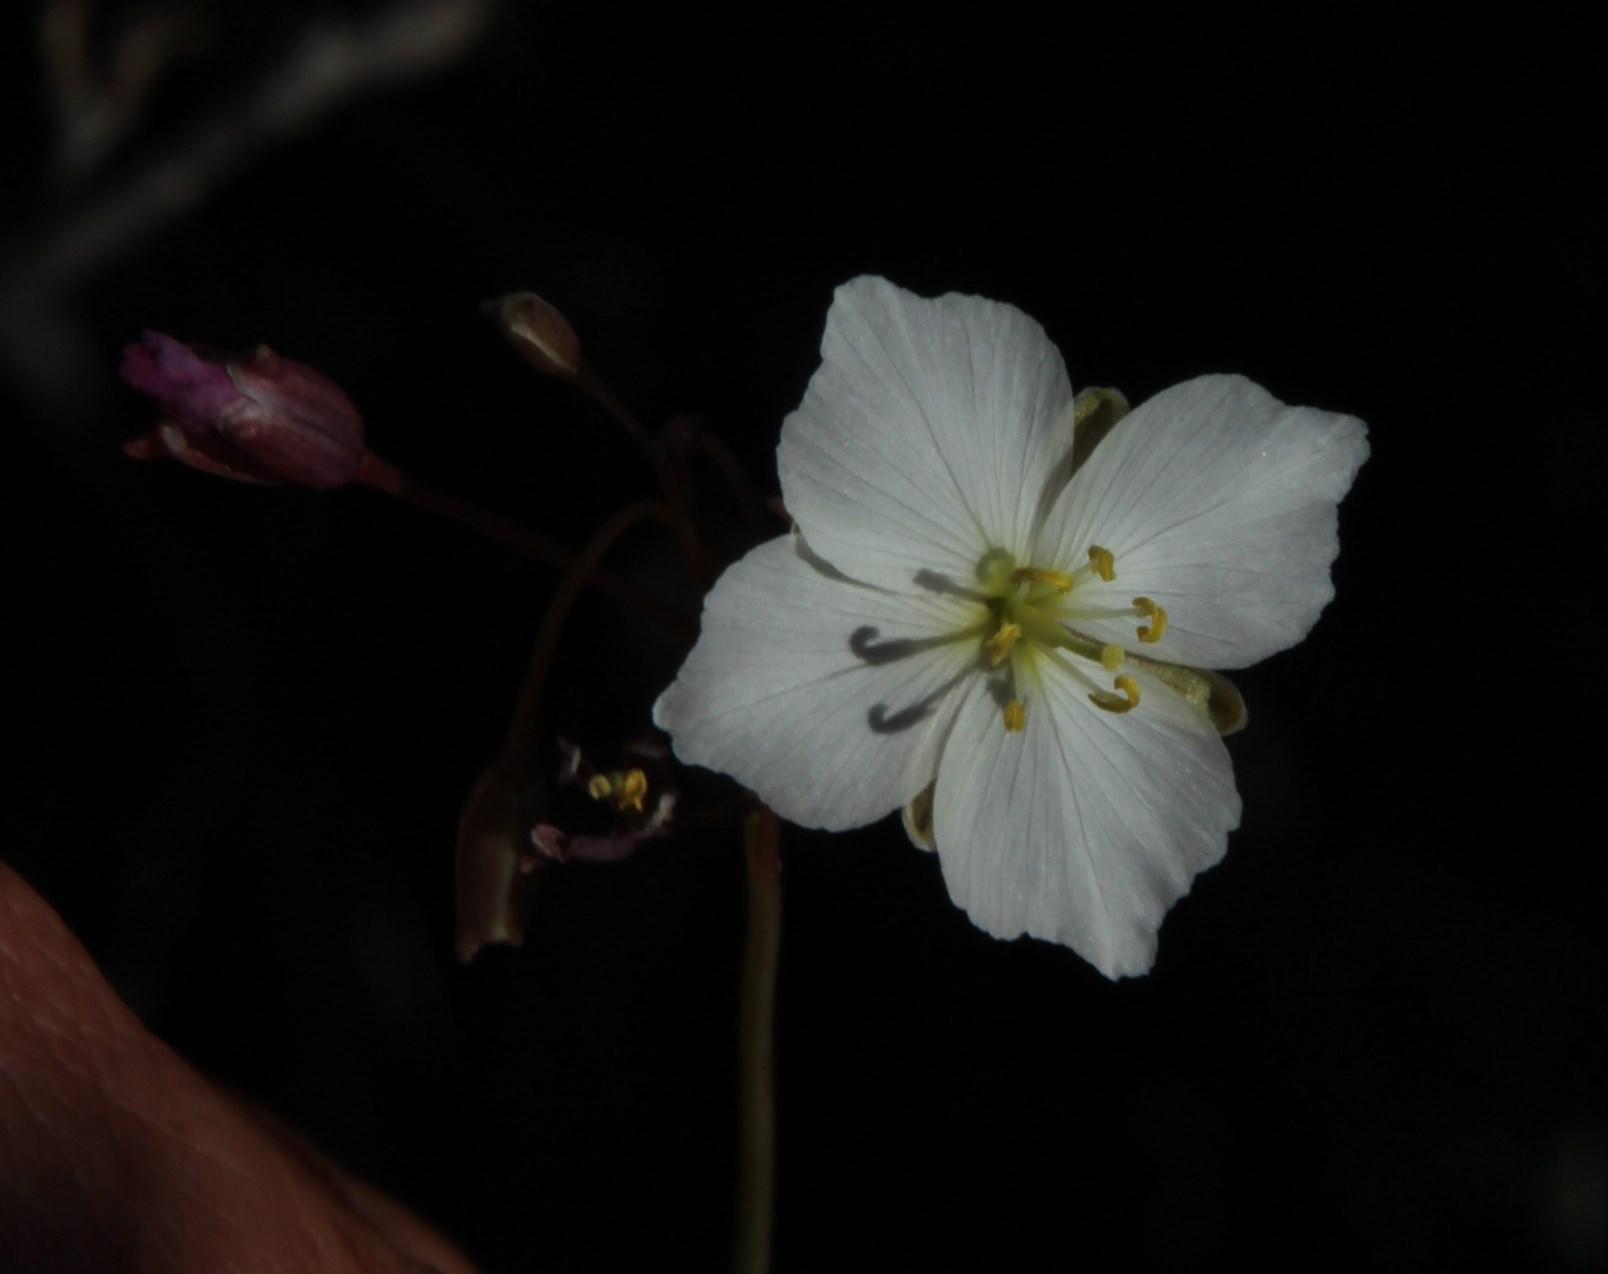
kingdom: Plantae
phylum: Tracheophyta
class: Magnoliopsida
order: Brassicales
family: Brassicaceae
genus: Heliophila
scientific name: Heliophila carnosa
